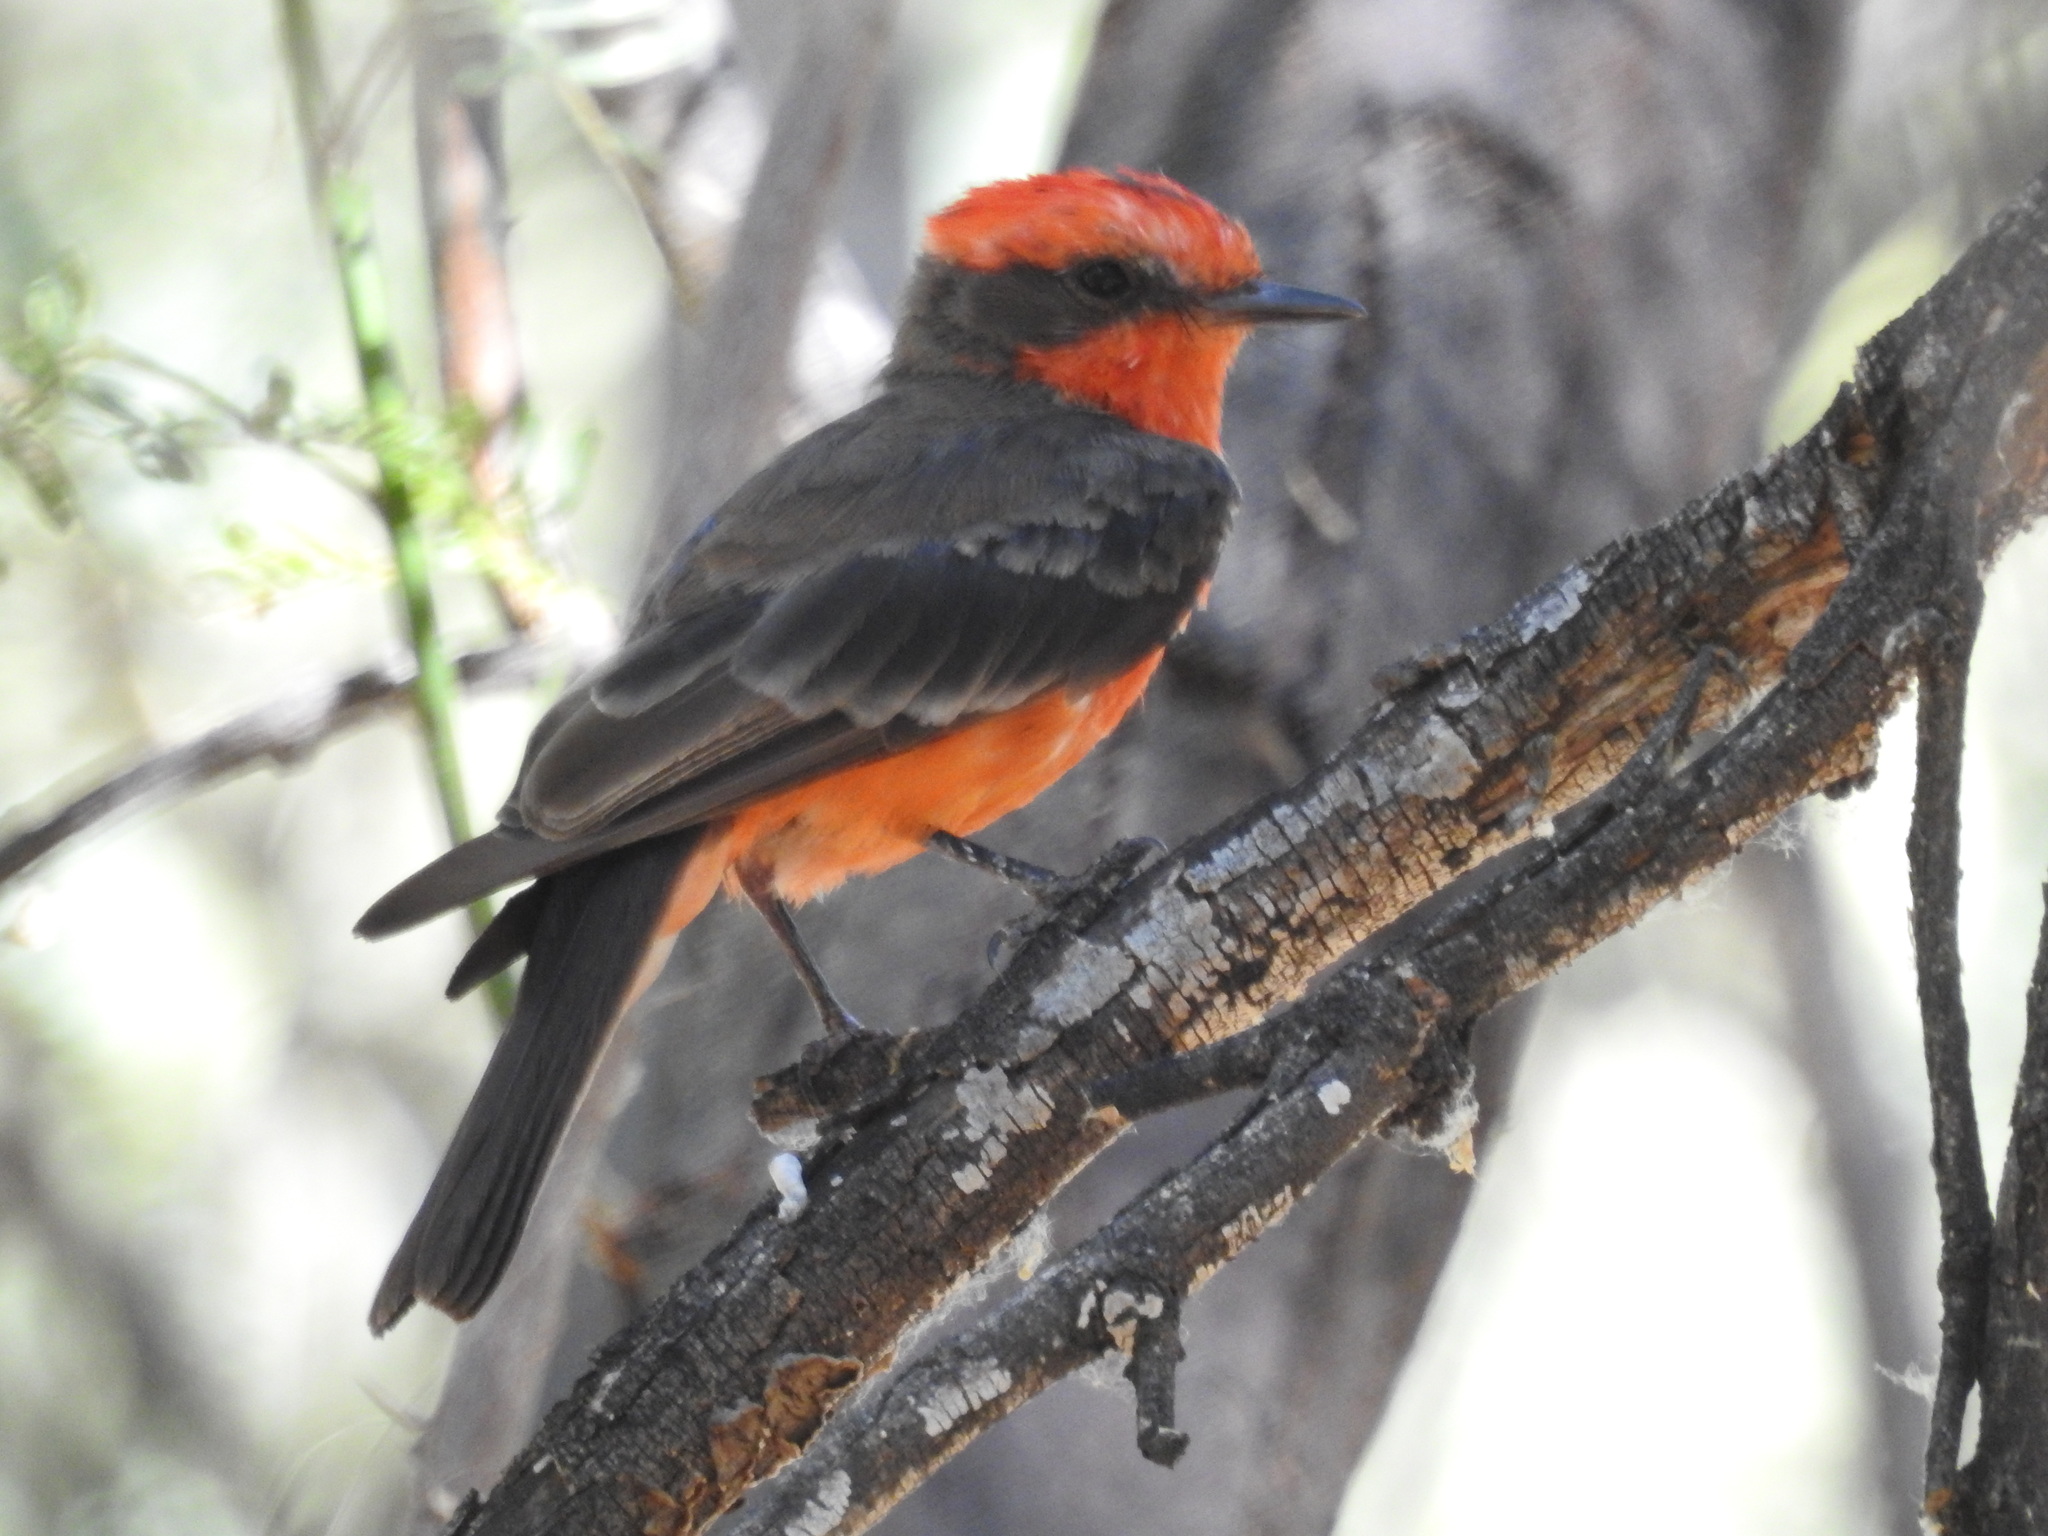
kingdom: Animalia
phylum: Chordata
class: Aves
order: Passeriformes
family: Tyrannidae
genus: Pyrocephalus
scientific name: Pyrocephalus rubinus
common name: Vermilion flycatcher
